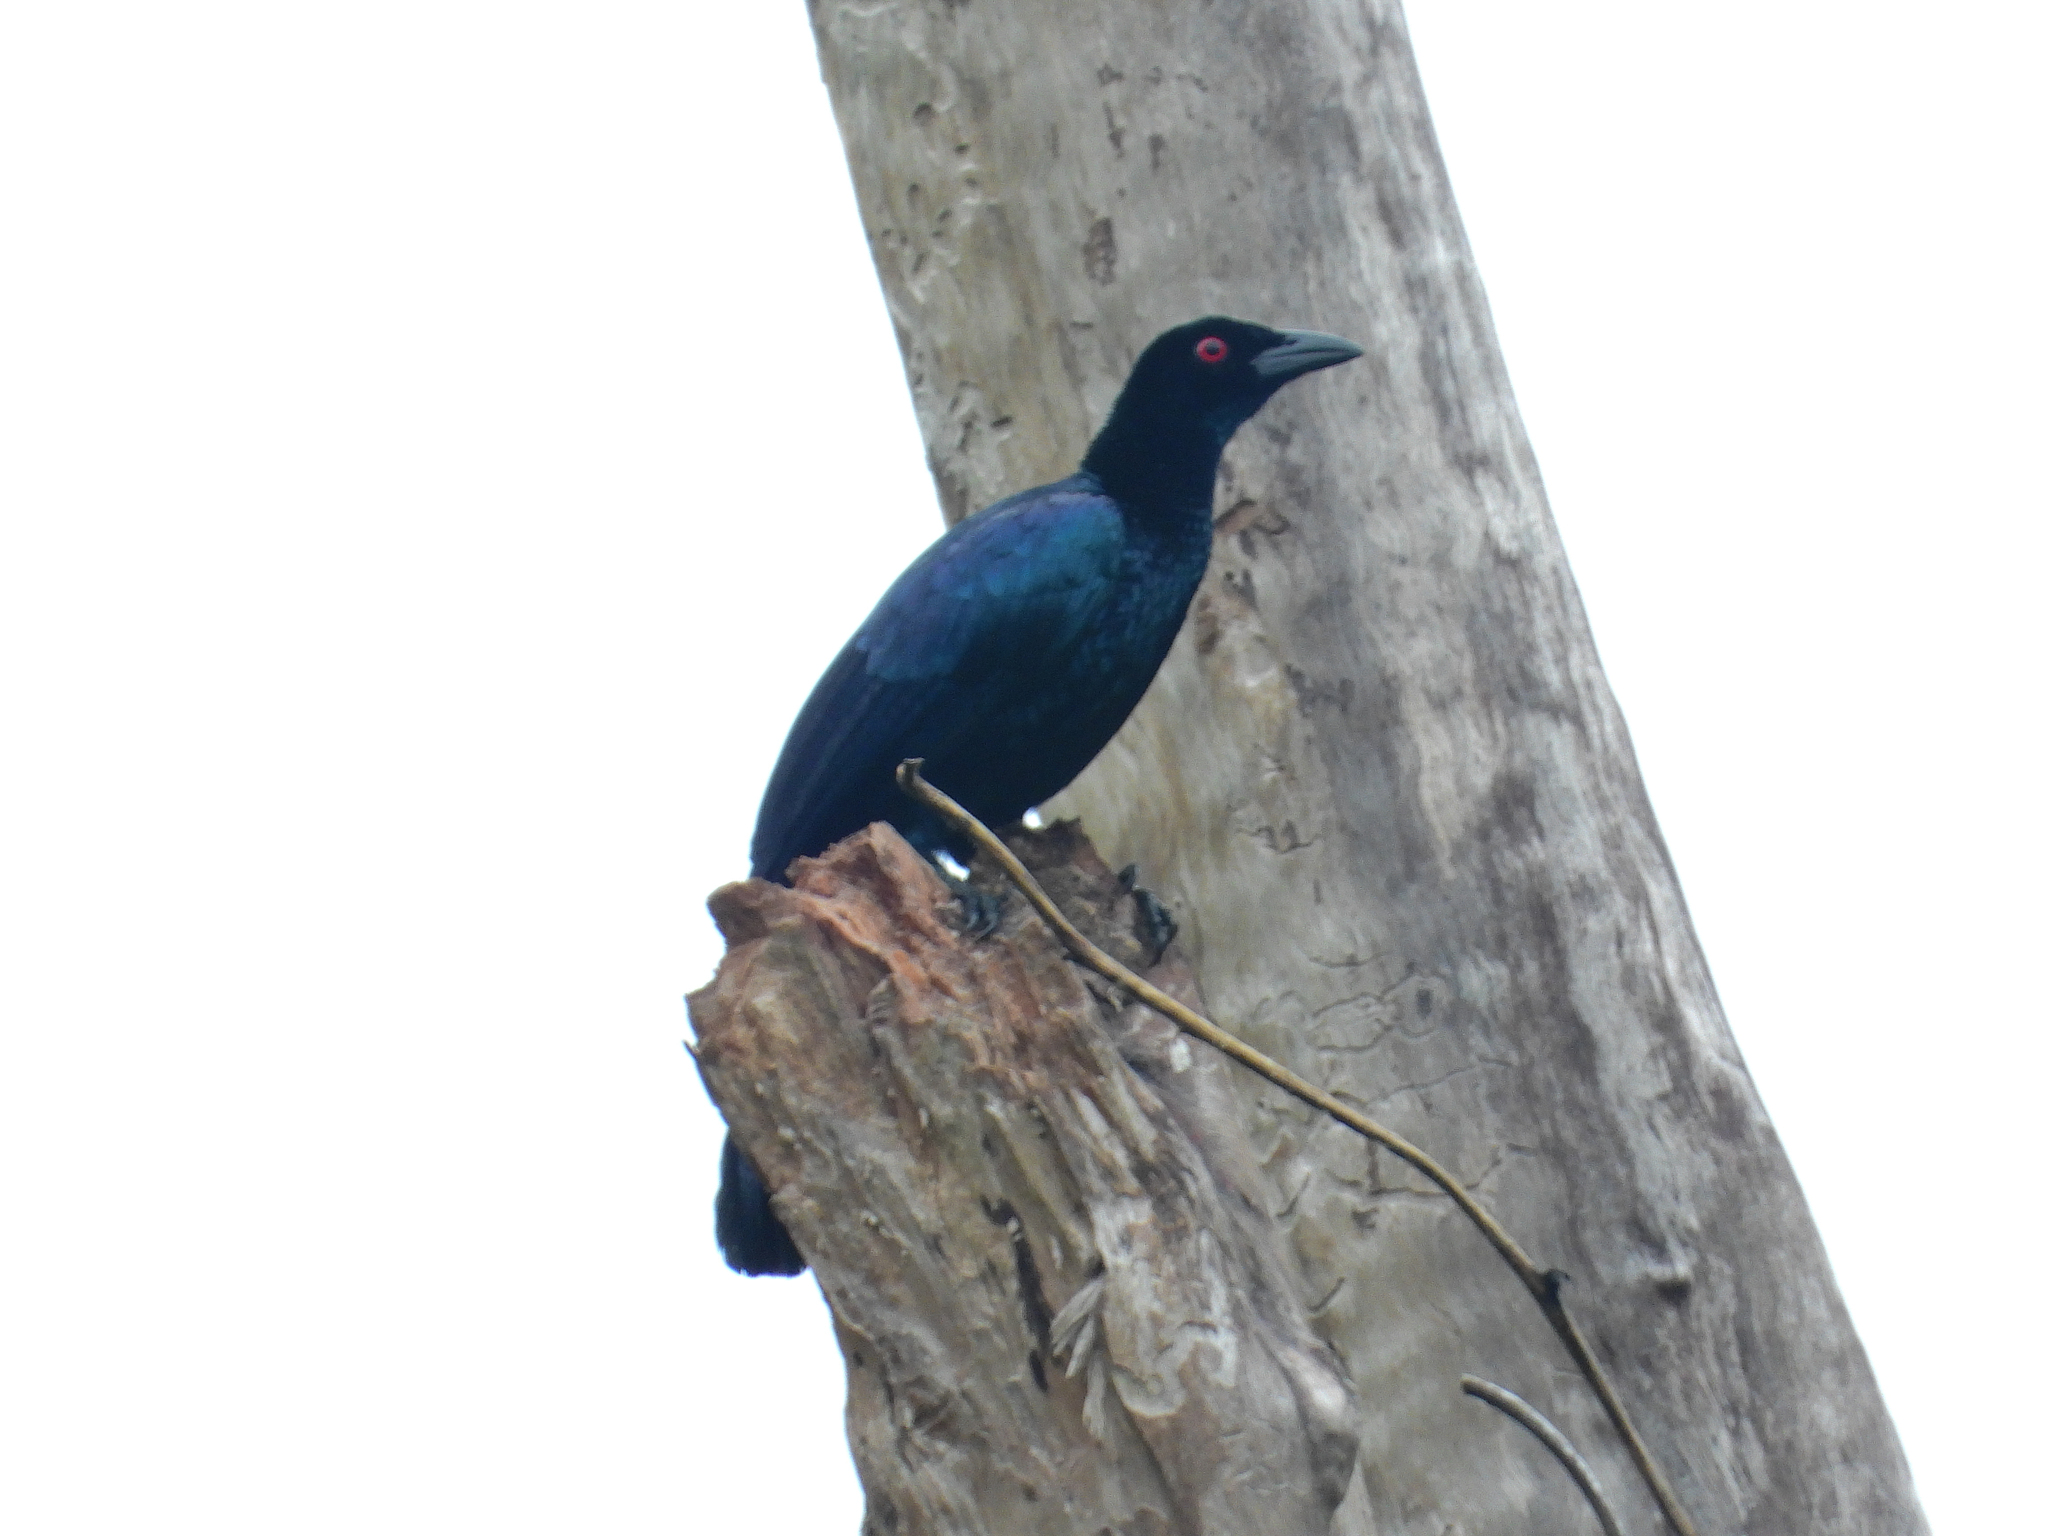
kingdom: Animalia
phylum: Chordata
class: Aves
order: Passeriformes
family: Paradisaeidae
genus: Manucodia
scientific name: Manucodia ater
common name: Glossy-mantled manucode
